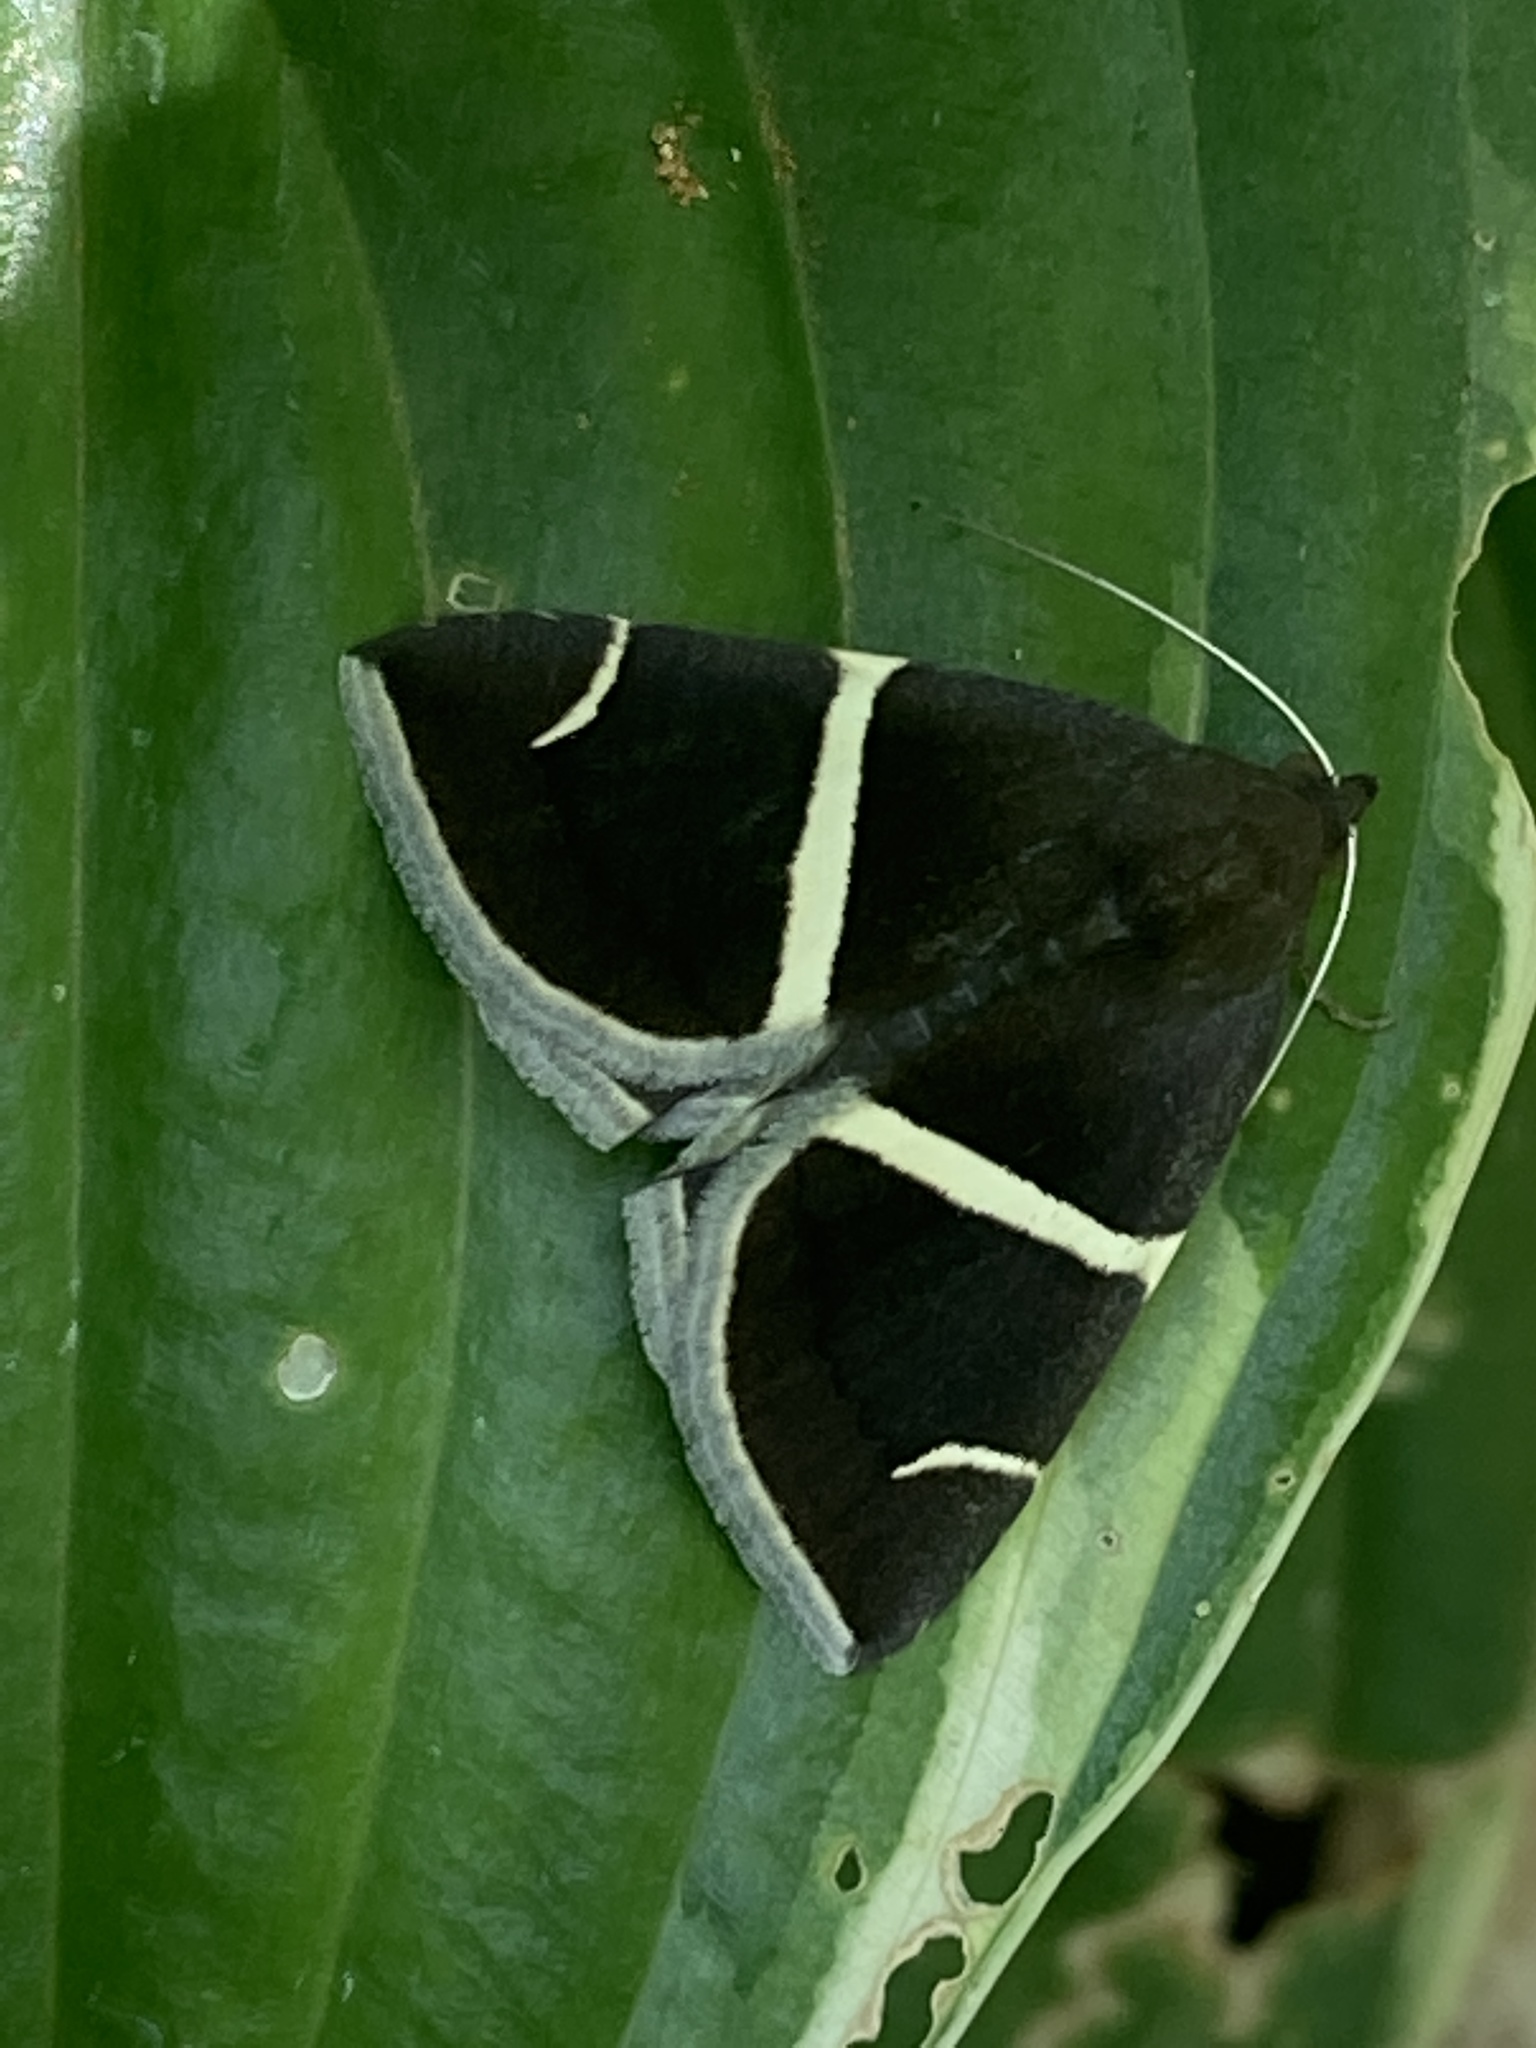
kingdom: Animalia
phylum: Arthropoda
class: Insecta
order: Lepidoptera
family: Erebidae
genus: Argyrostrotis
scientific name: Argyrostrotis anilis
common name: Short-lined chocolate
